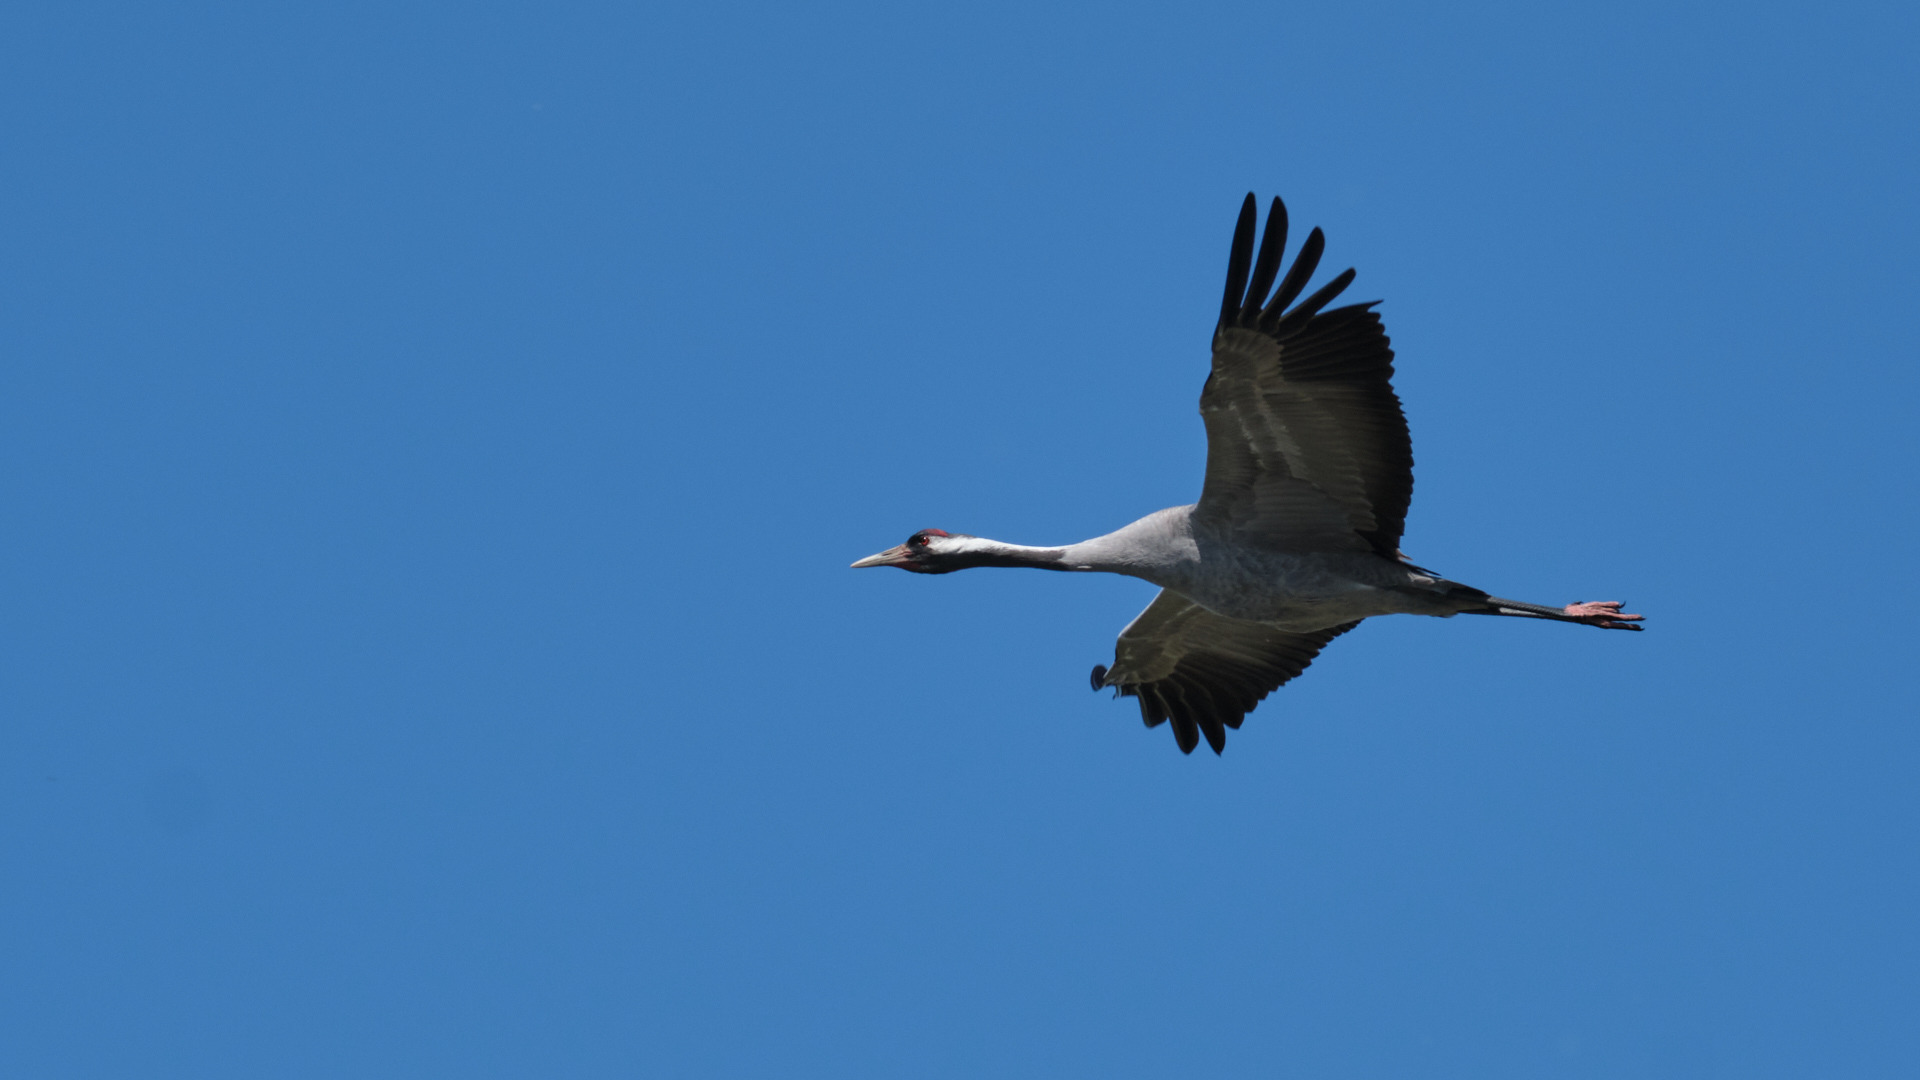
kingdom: Animalia
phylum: Chordata
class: Aves
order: Gruiformes
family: Gruidae
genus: Grus
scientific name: Grus grus
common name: Common crane
